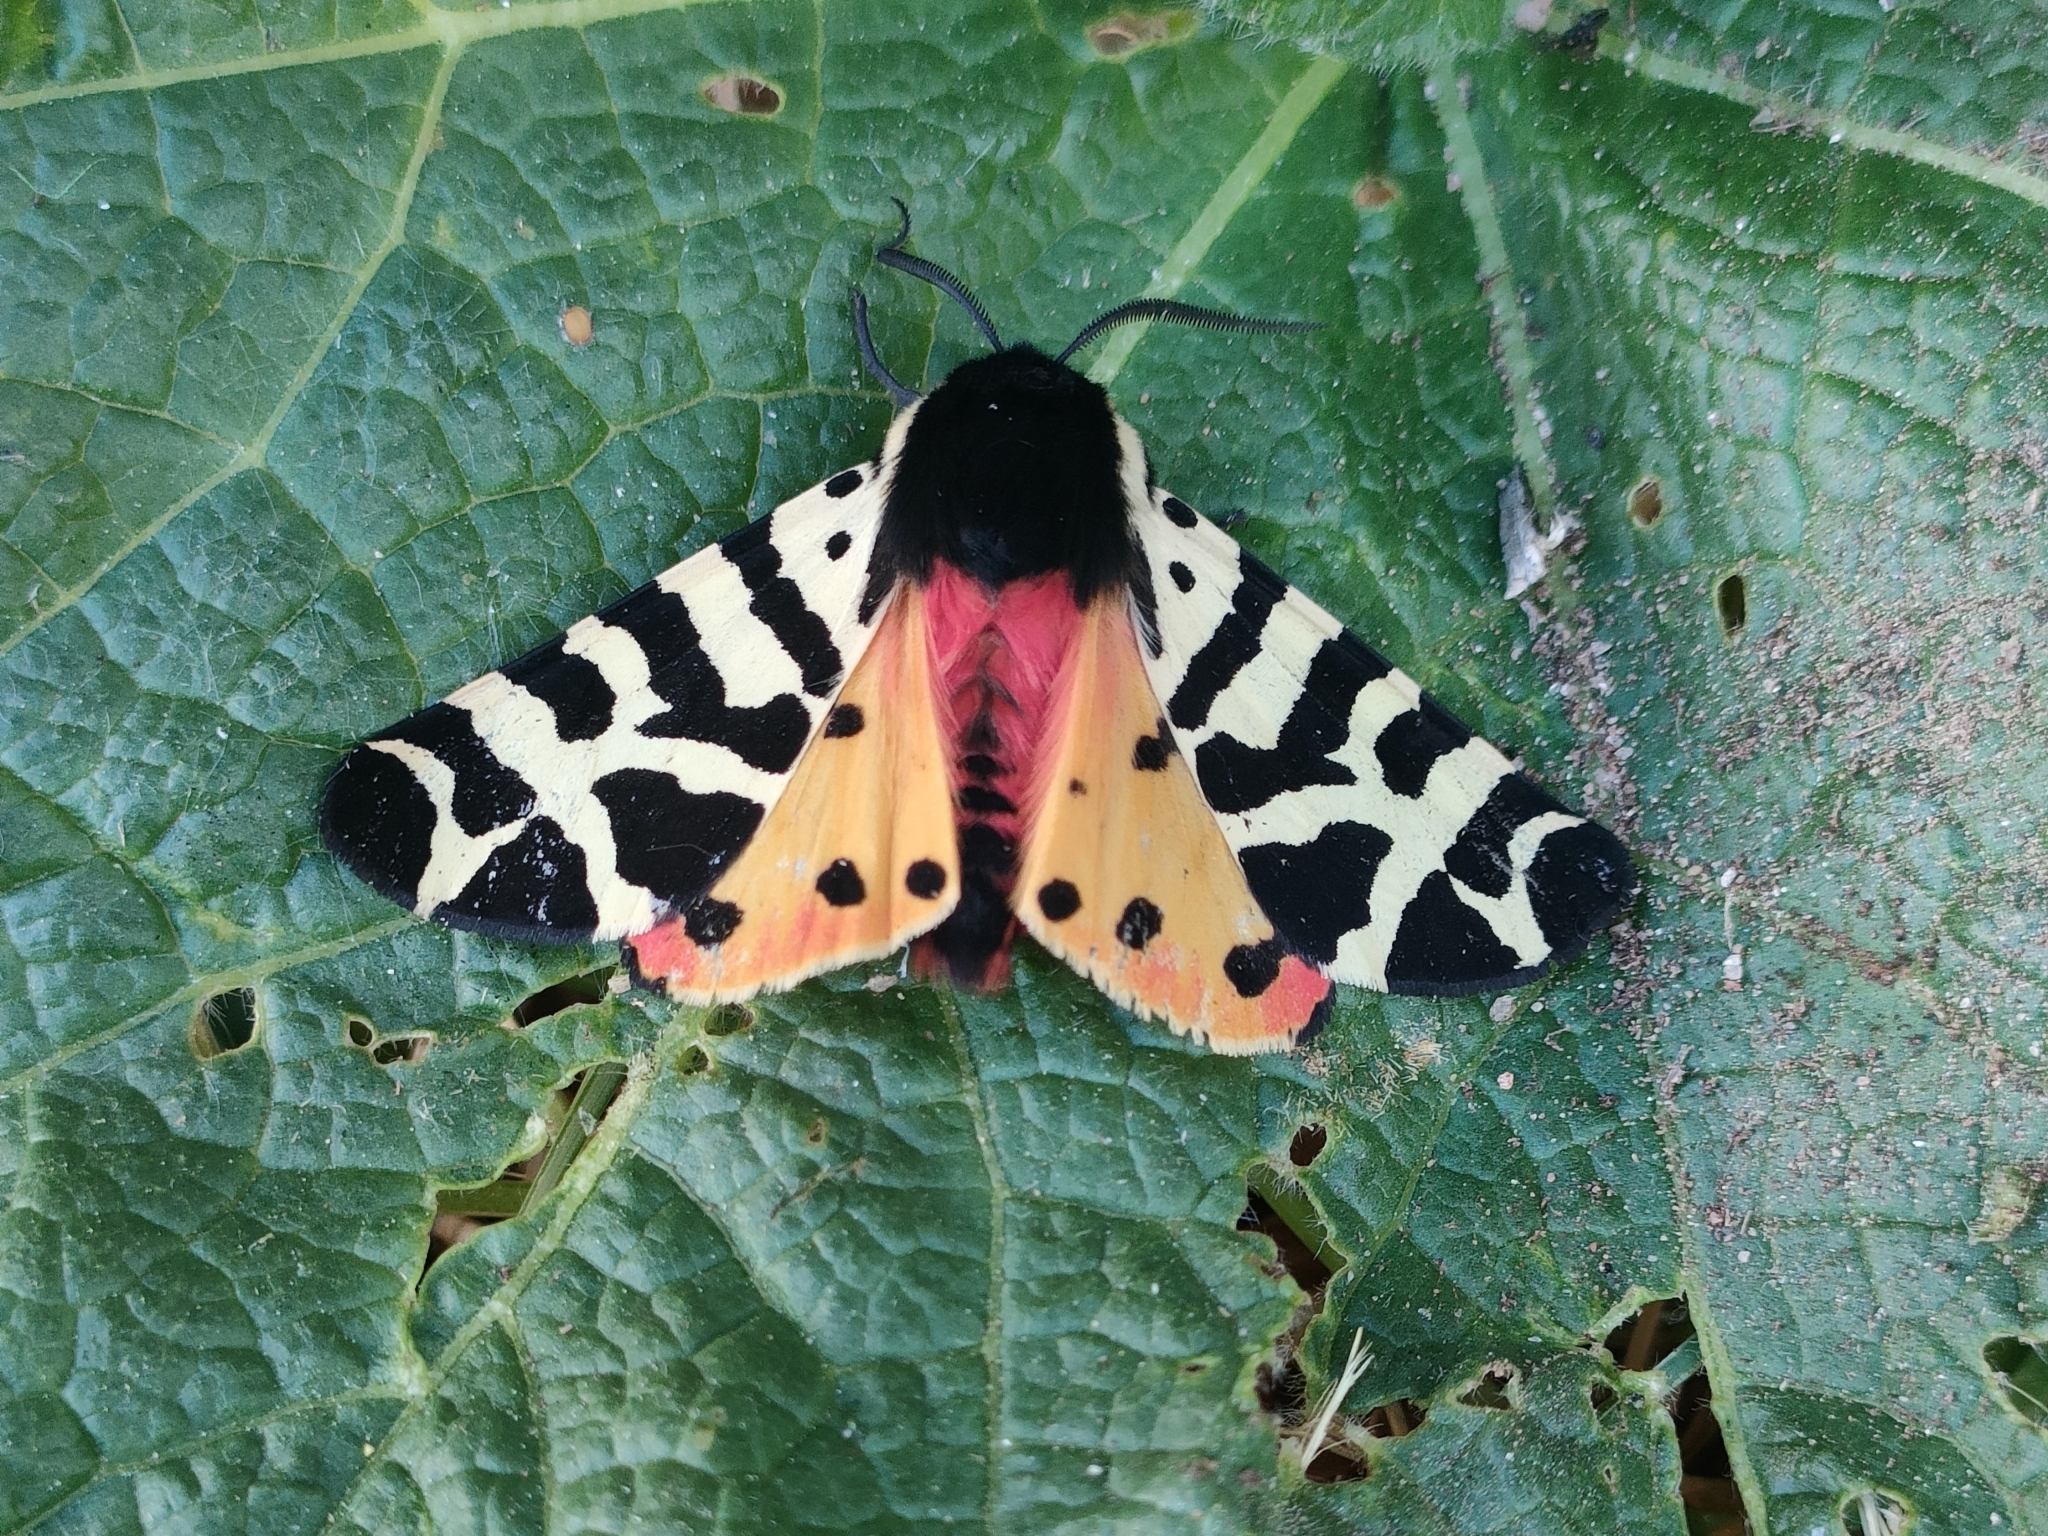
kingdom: Animalia
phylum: Arthropoda
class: Insecta
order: Lepidoptera
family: Erebidae
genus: Arctia
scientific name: Arctia tigrina
